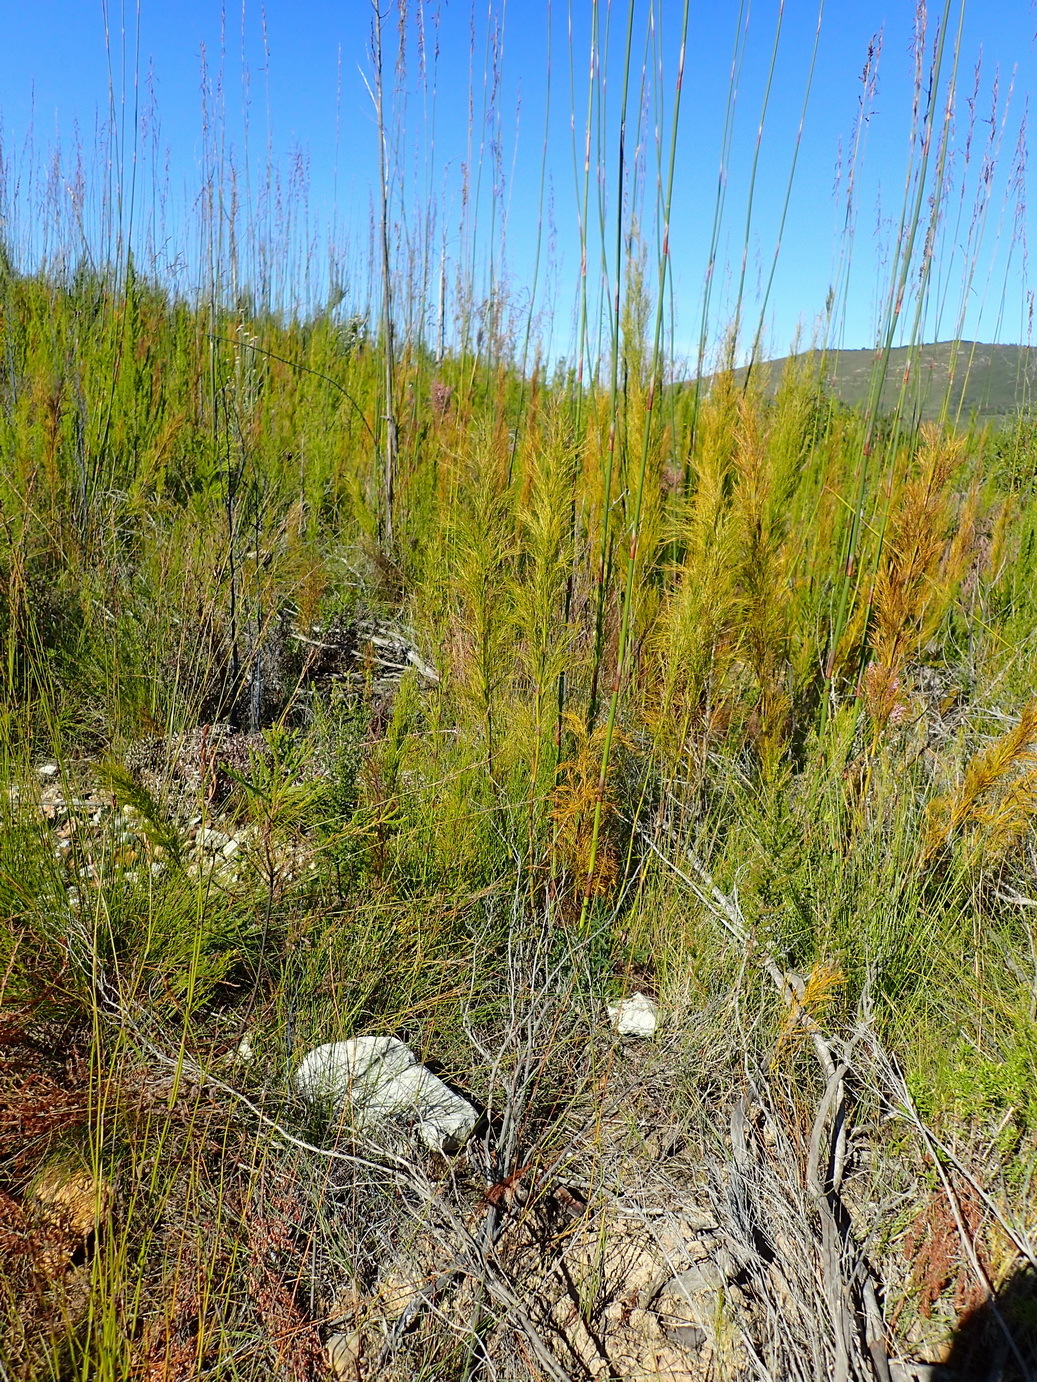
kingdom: Plantae
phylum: Tracheophyta
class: Liliopsida
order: Poales
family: Restionaceae
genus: Rhodocoma
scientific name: Rhodocoma gigantea
